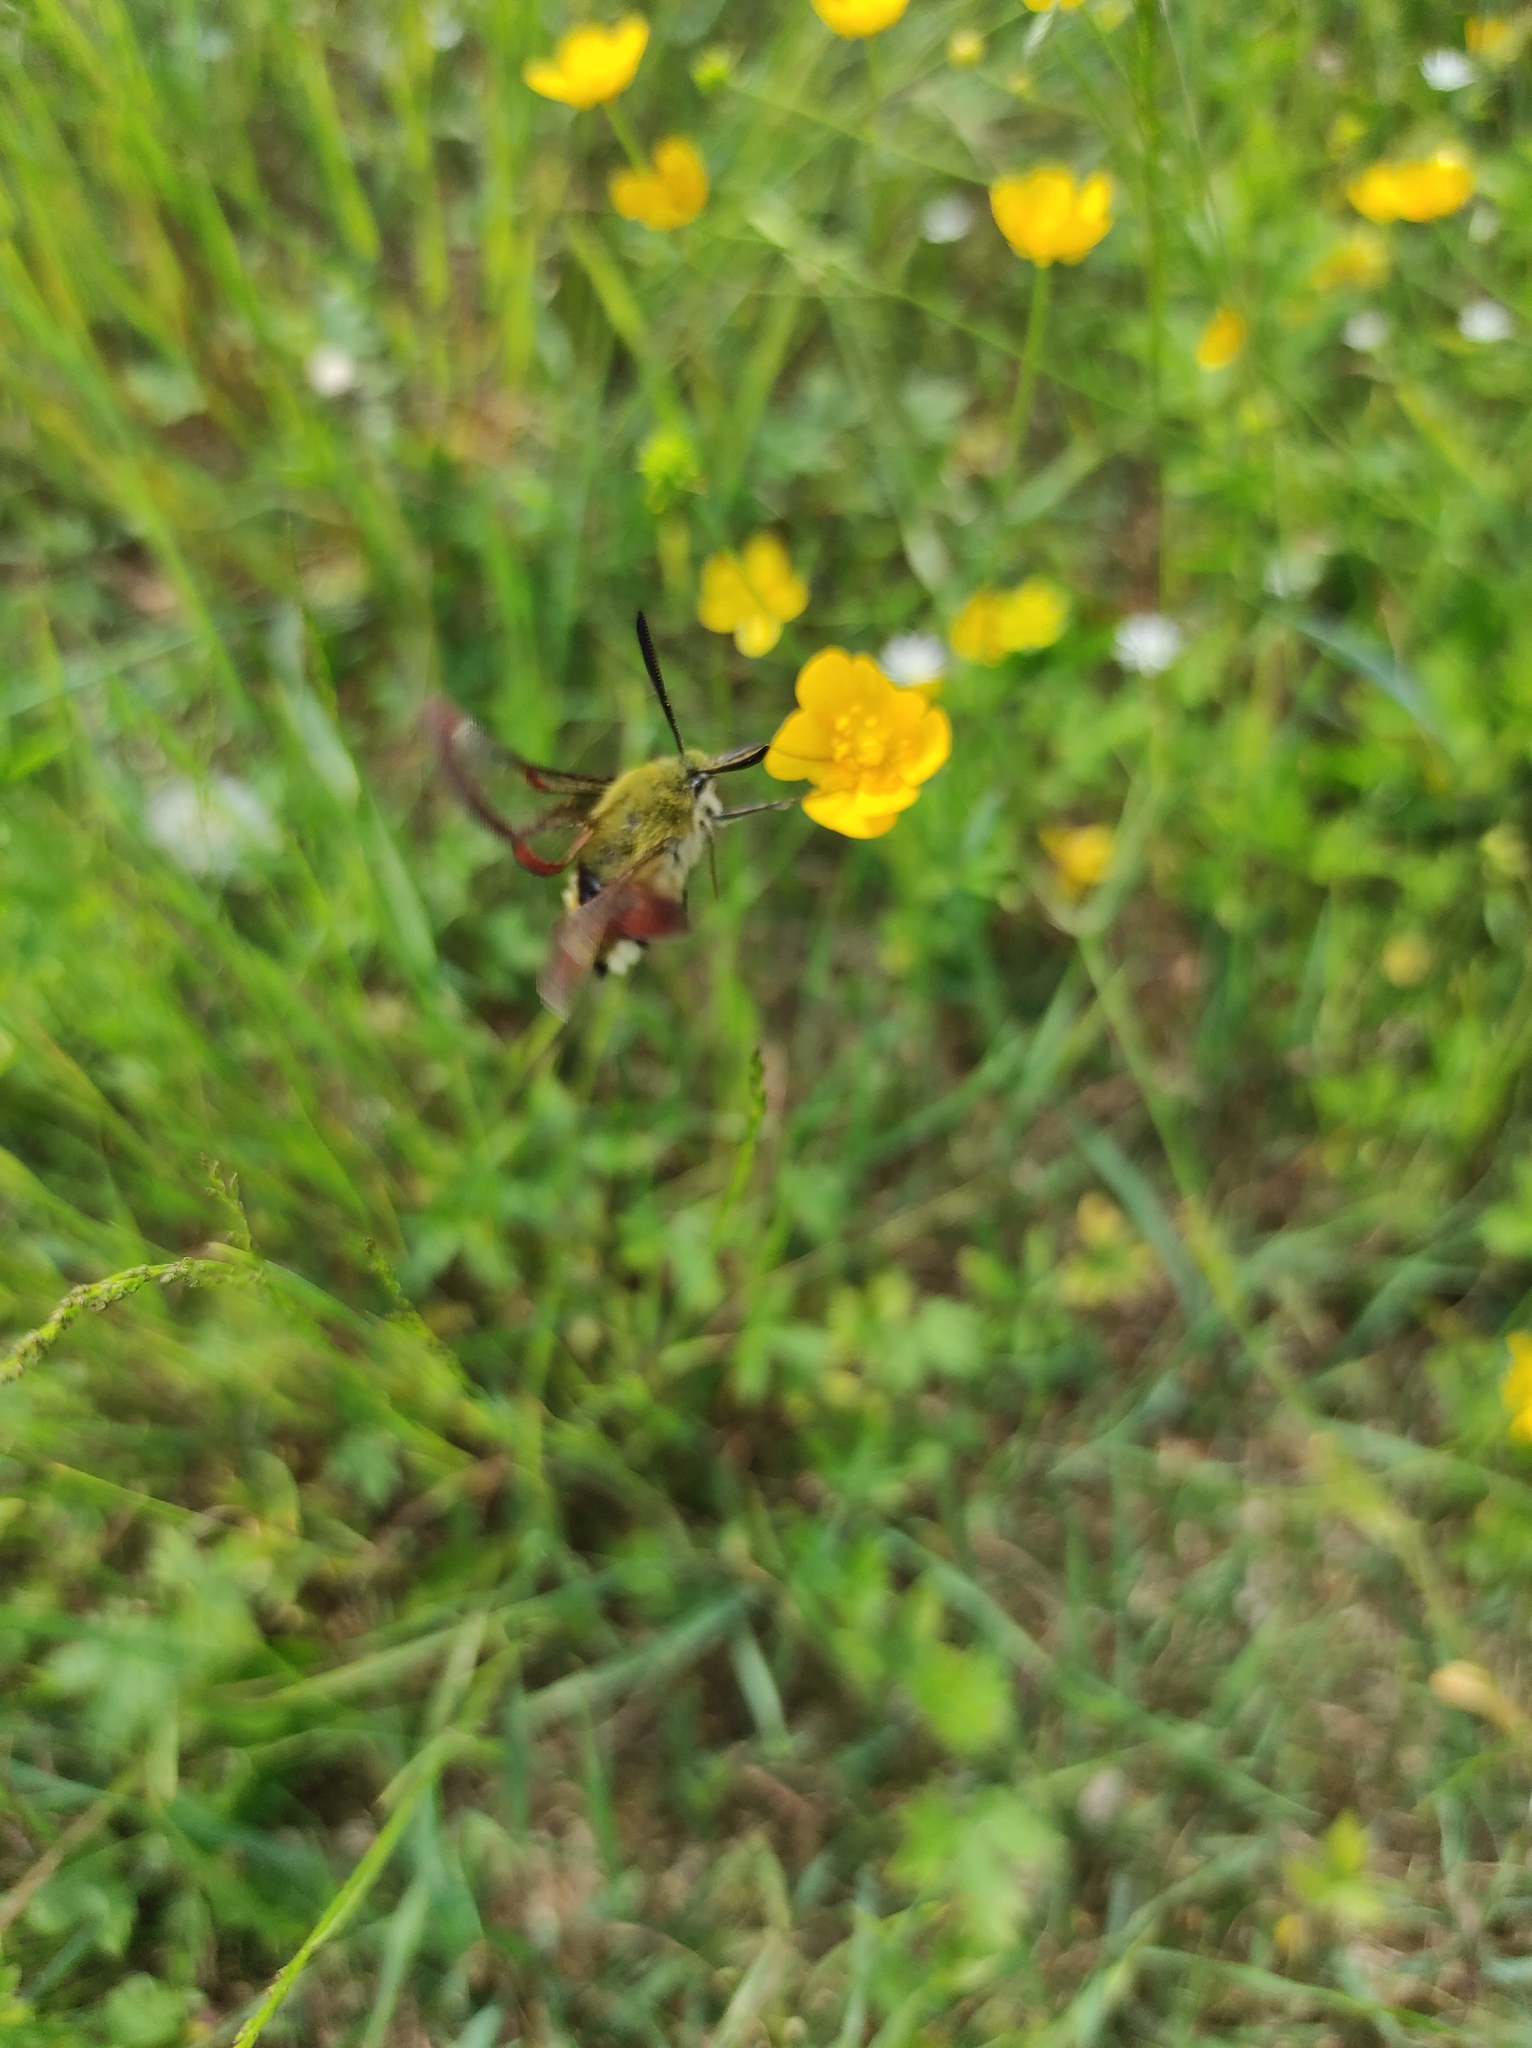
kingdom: Animalia
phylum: Arthropoda
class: Insecta
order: Lepidoptera
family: Sphingidae
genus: Hemaris
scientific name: Hemaris fuciformis
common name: Broad-bordered bee hawk-moth
